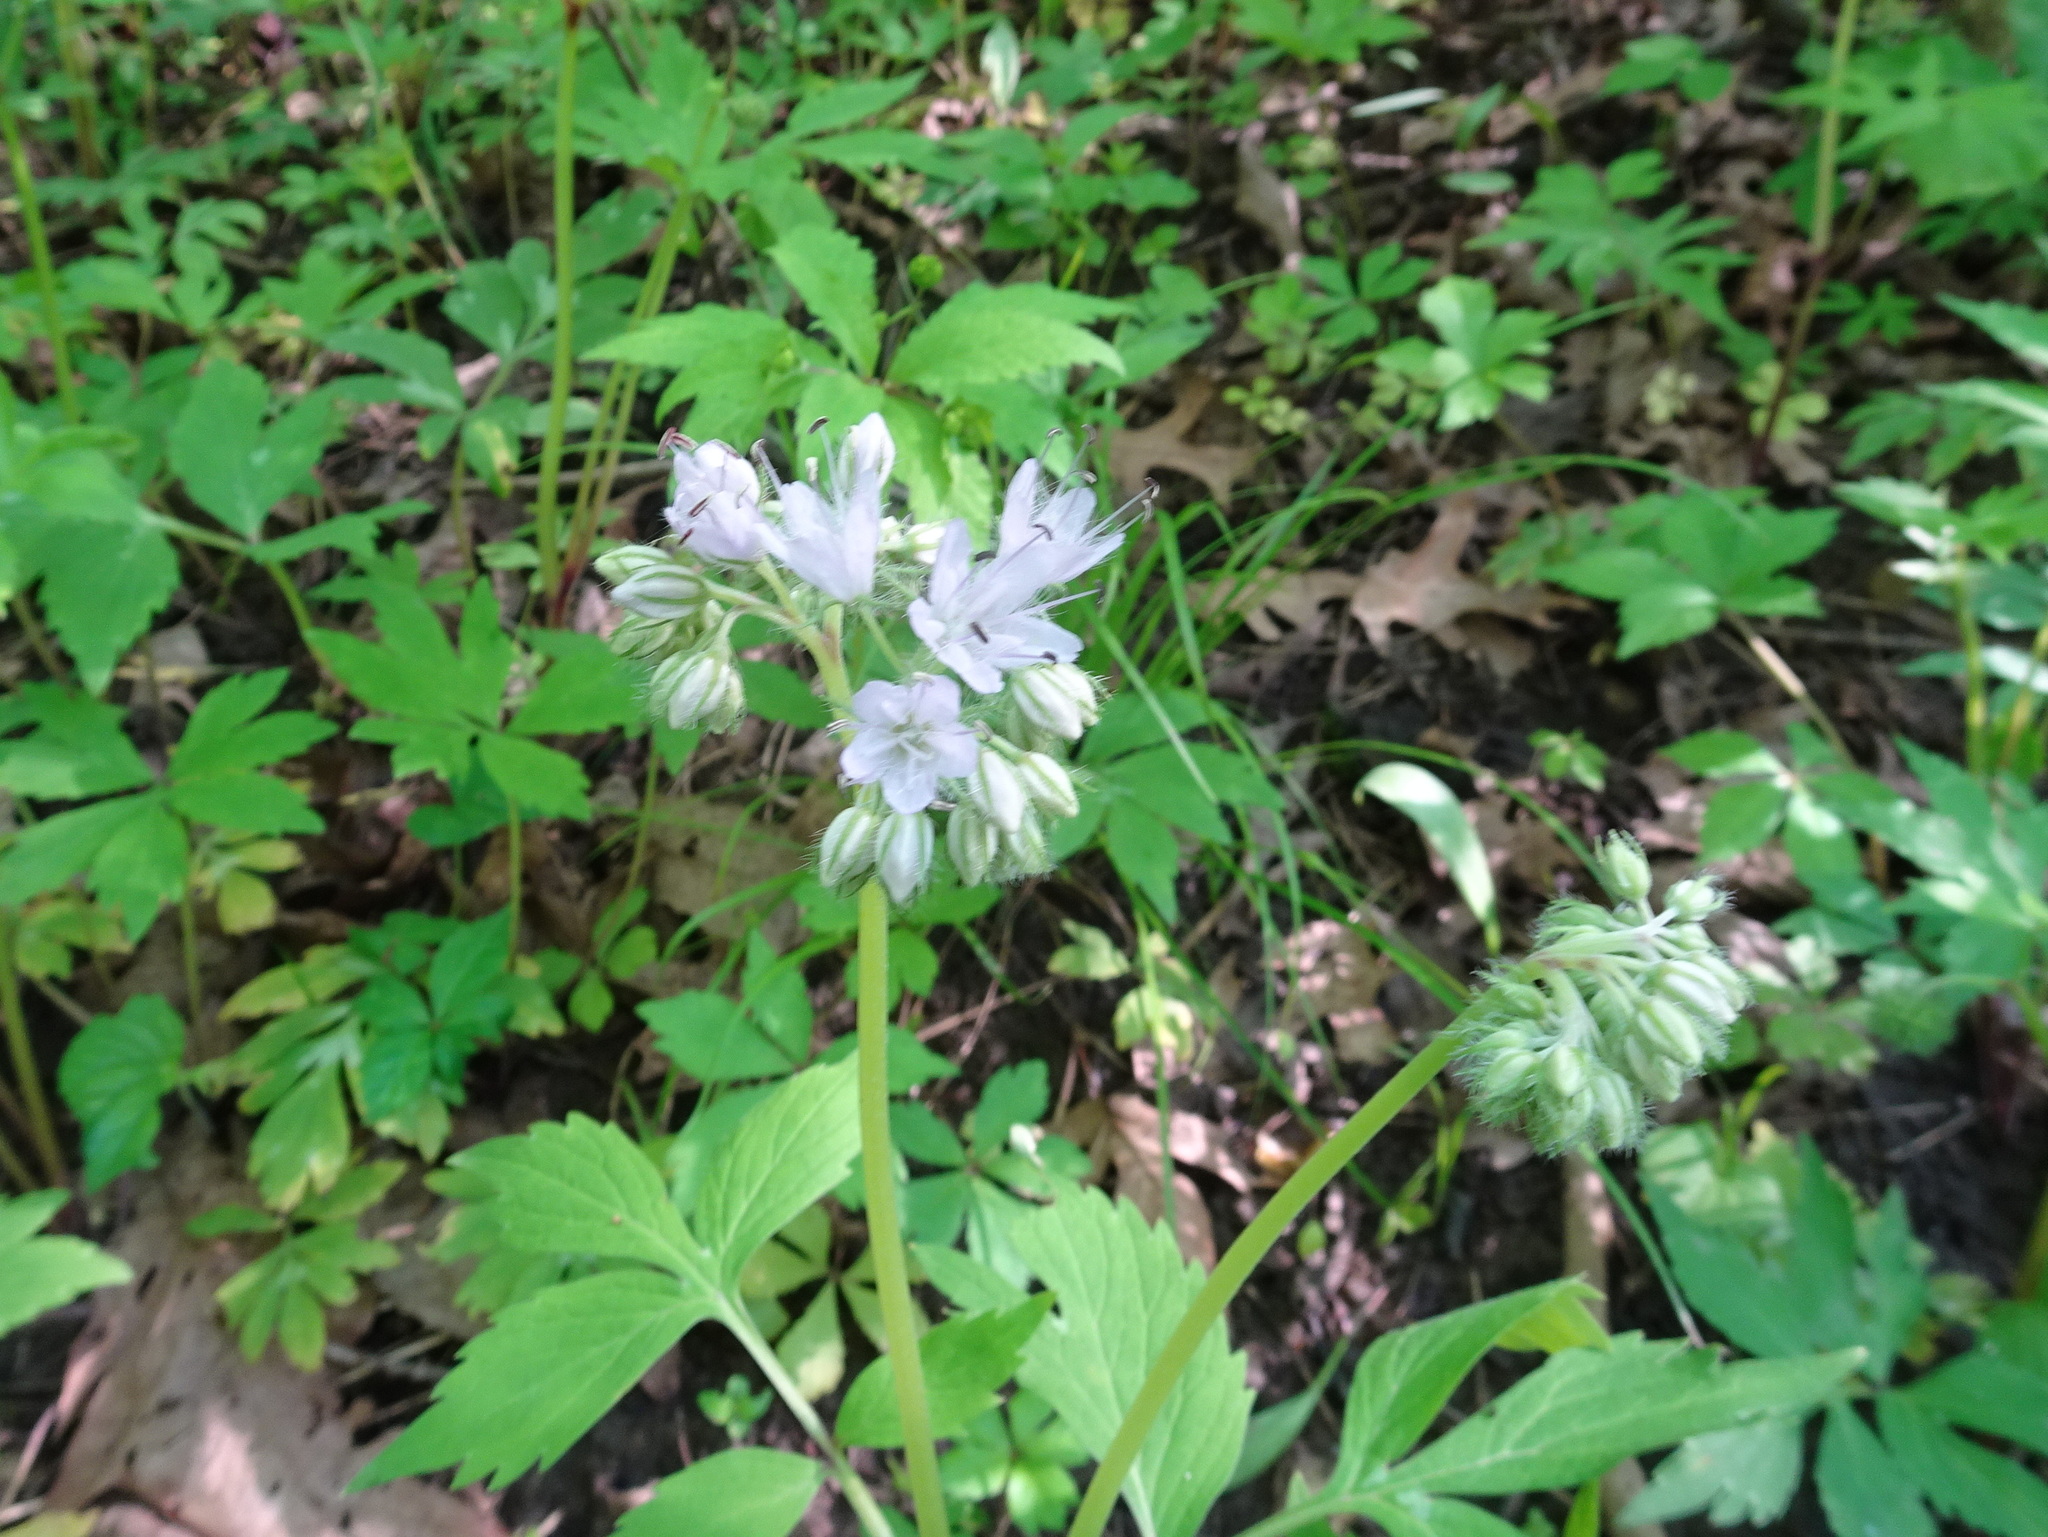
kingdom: Plantae
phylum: Tracheophyta
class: Magnoliopsida
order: Boraginales
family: Hydrophyllaceae
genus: Hydrophyllum
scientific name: Hydrophyllum virginianum
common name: Virginia waterleaf
